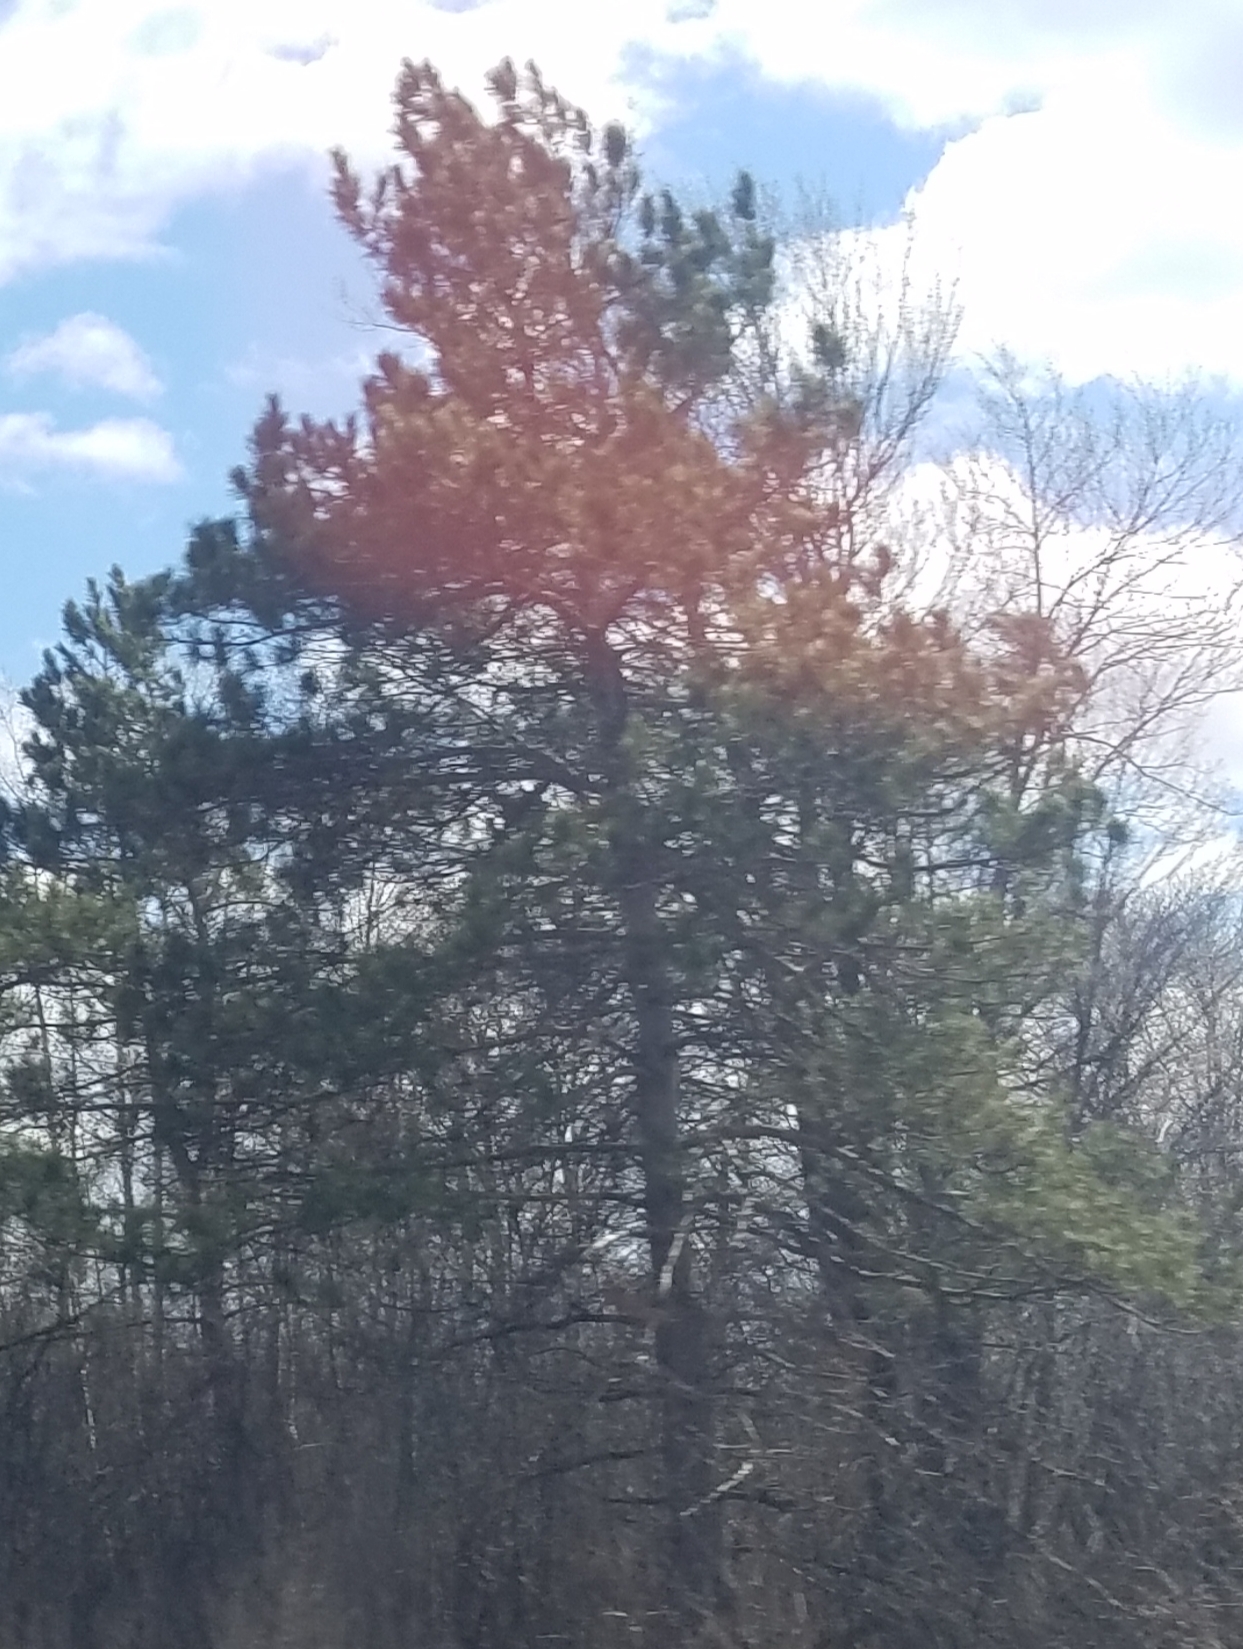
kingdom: Plantae
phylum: Tracheophyta
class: Pinopsida
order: Pinales
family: Pinaceae
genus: Pinus
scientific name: Pinus resinosa
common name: Norway pine
